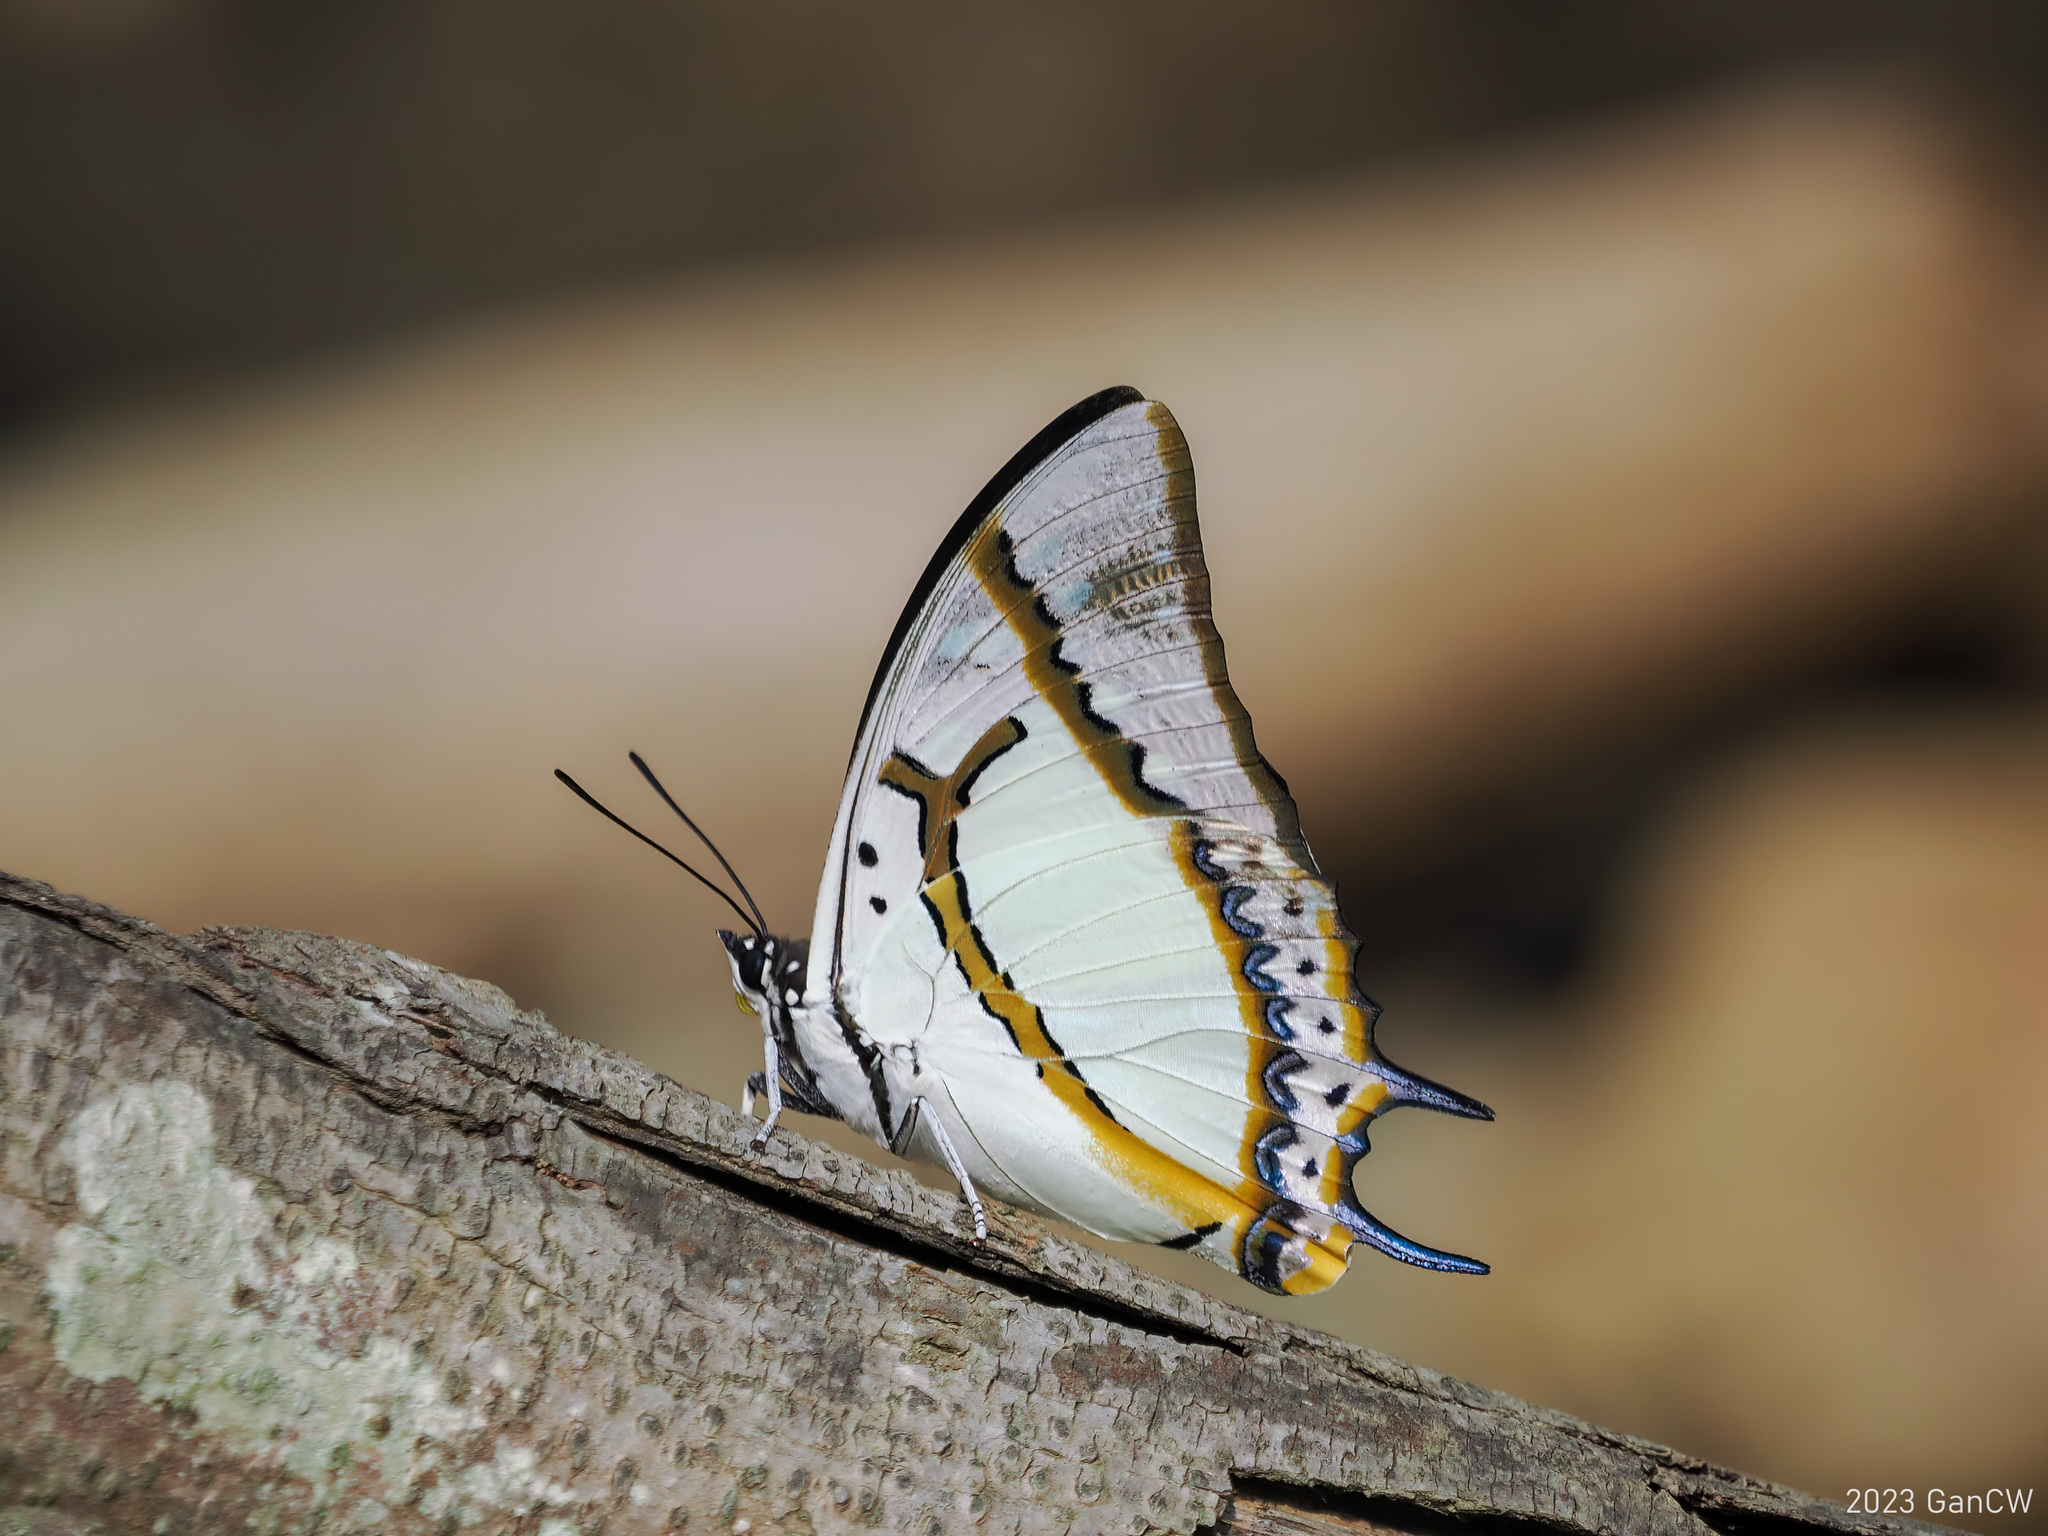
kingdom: Animalia
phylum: Arthropoda
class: Insecta
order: Lepidoptera
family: Nymphalidae
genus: Polyura
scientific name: Polyura eudamippus
